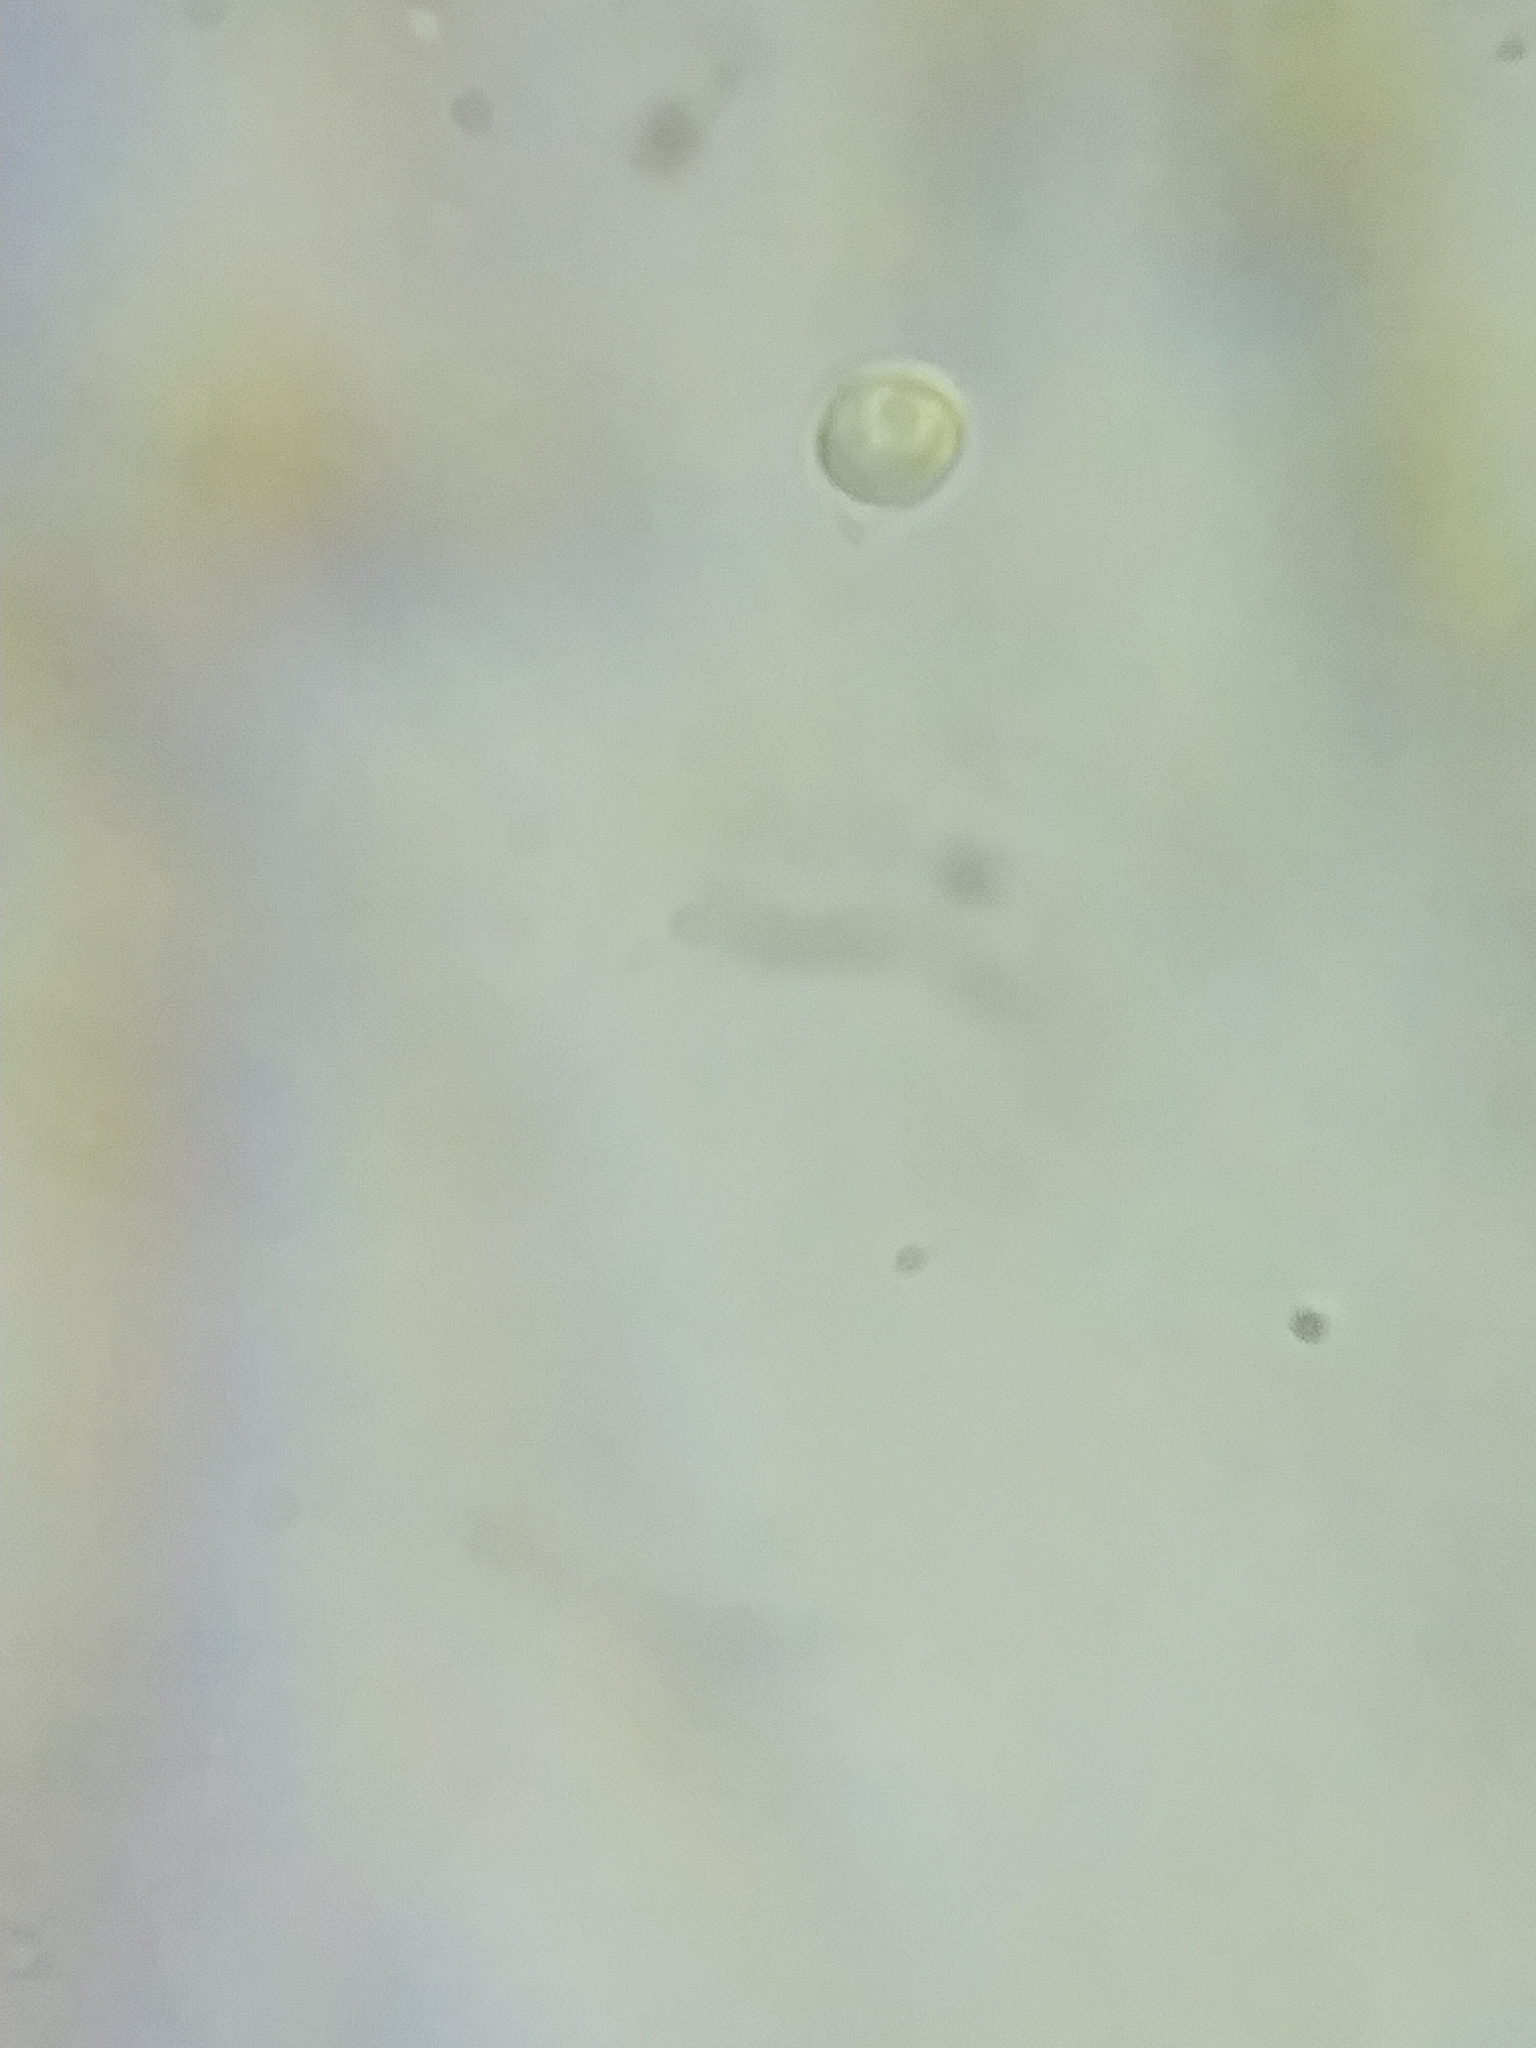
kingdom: Fungi
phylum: Basidiomycota
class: Agaricomycetes
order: Agaricales
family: Tricholomataceae
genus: Tricholoma
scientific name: Tricholoma dulciolens
